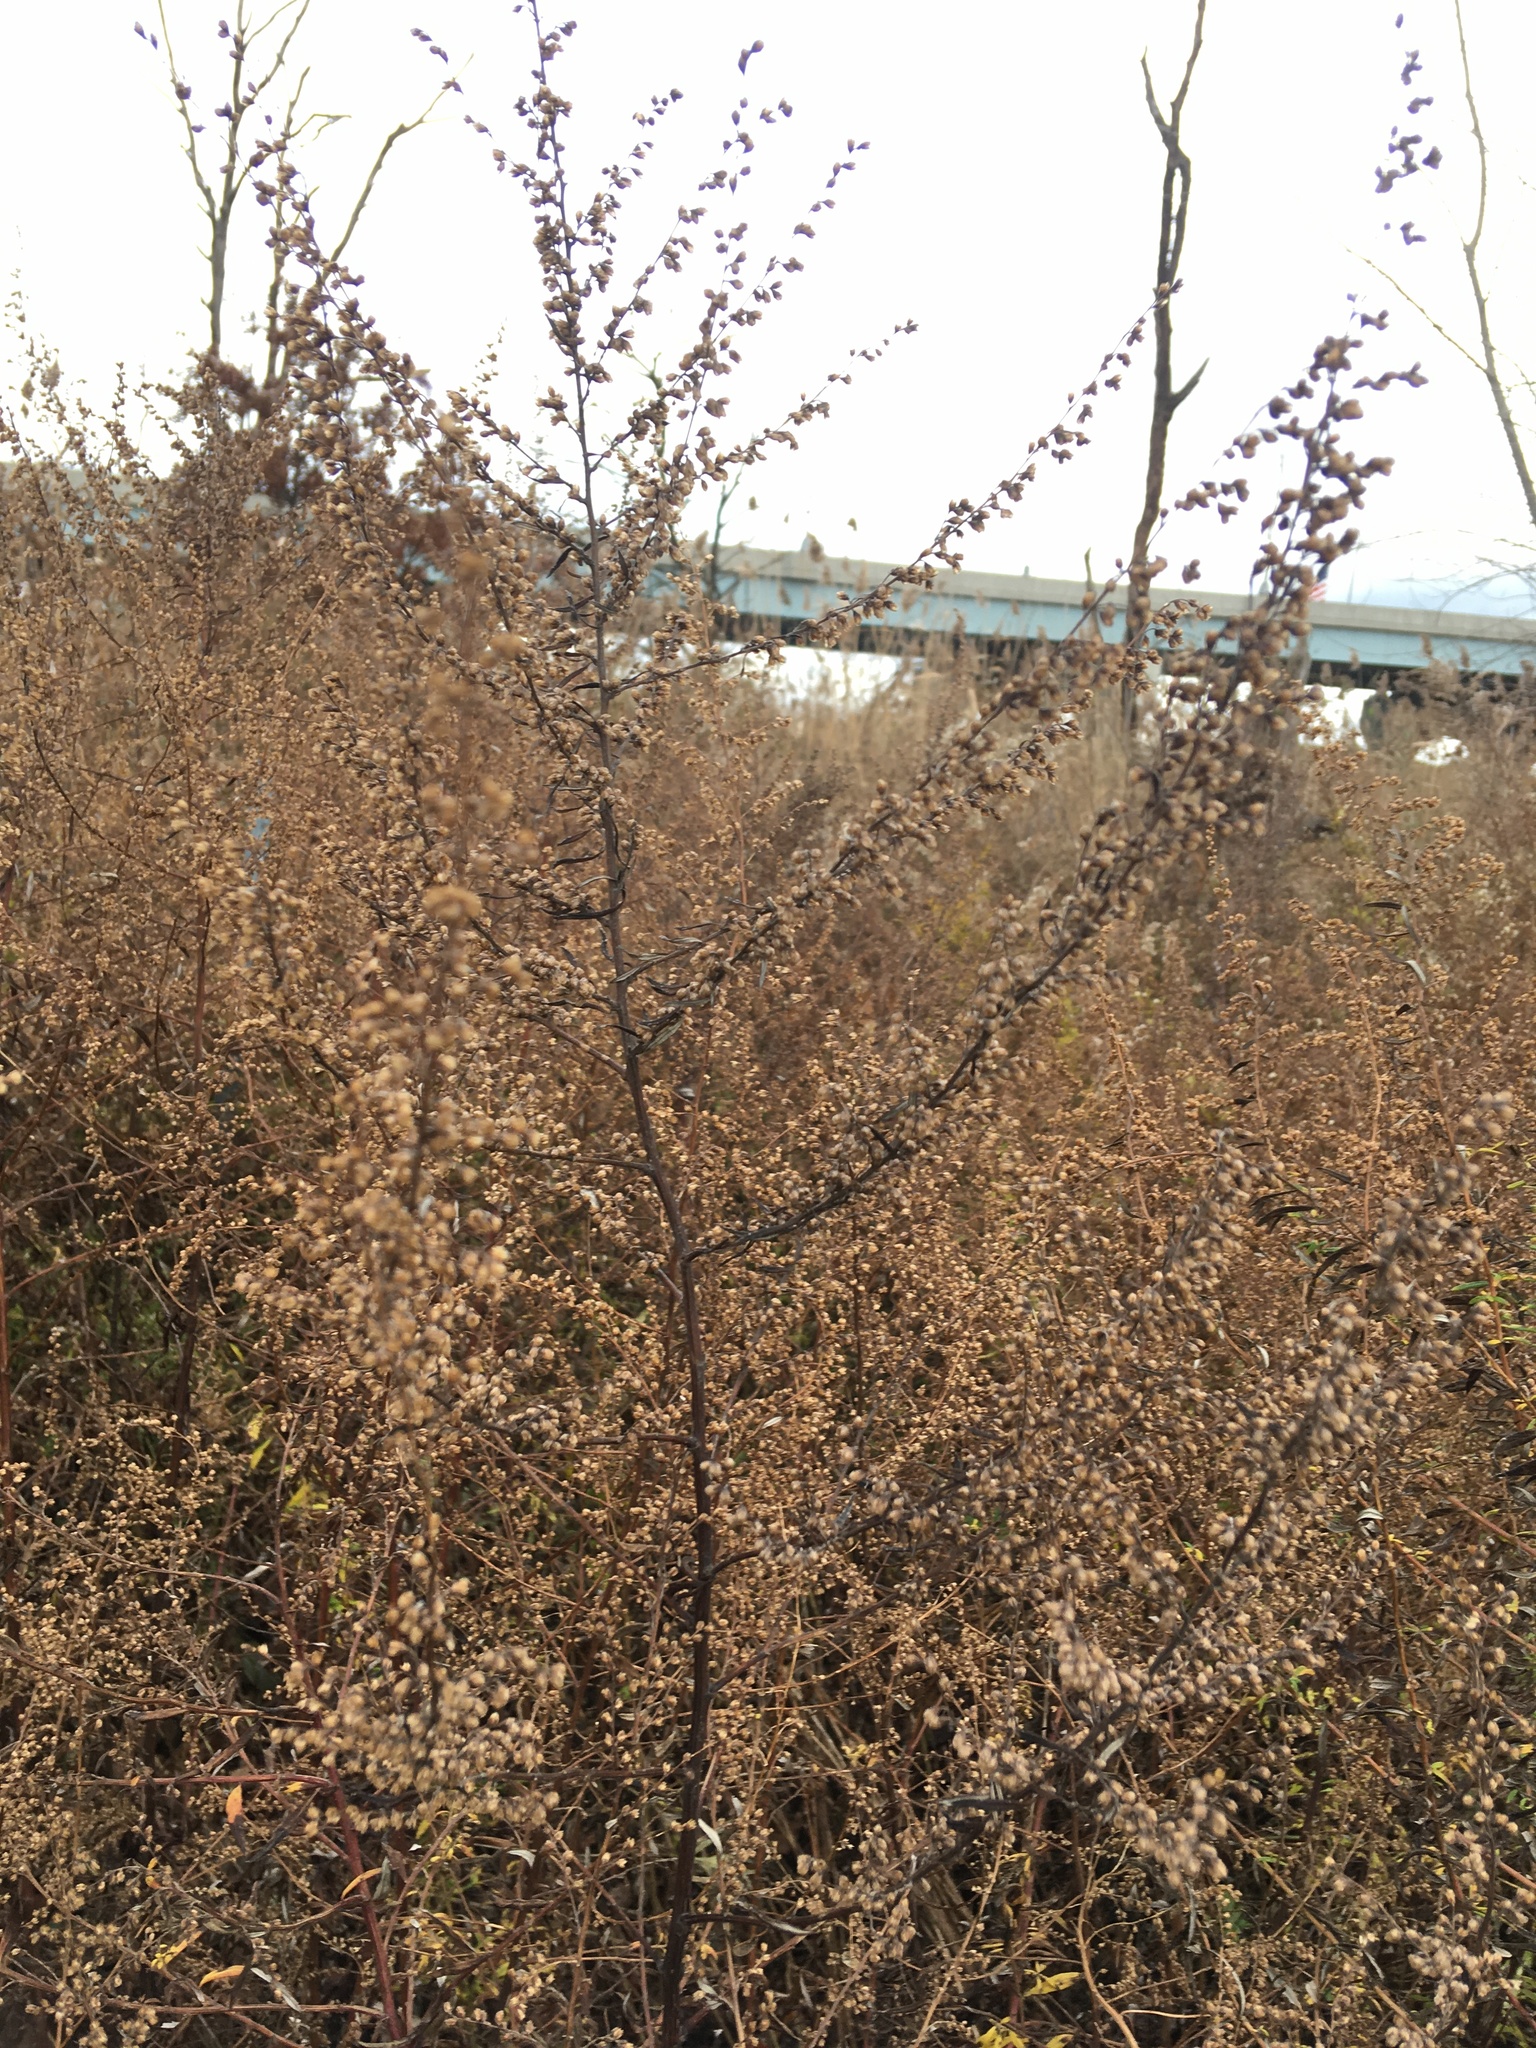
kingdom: Plantae
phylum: Tracheophyta
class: Magnoliopsida
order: Asterales
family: Asteraceae
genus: Artemisia
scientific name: Artemisia vulgaris
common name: Mugwort
